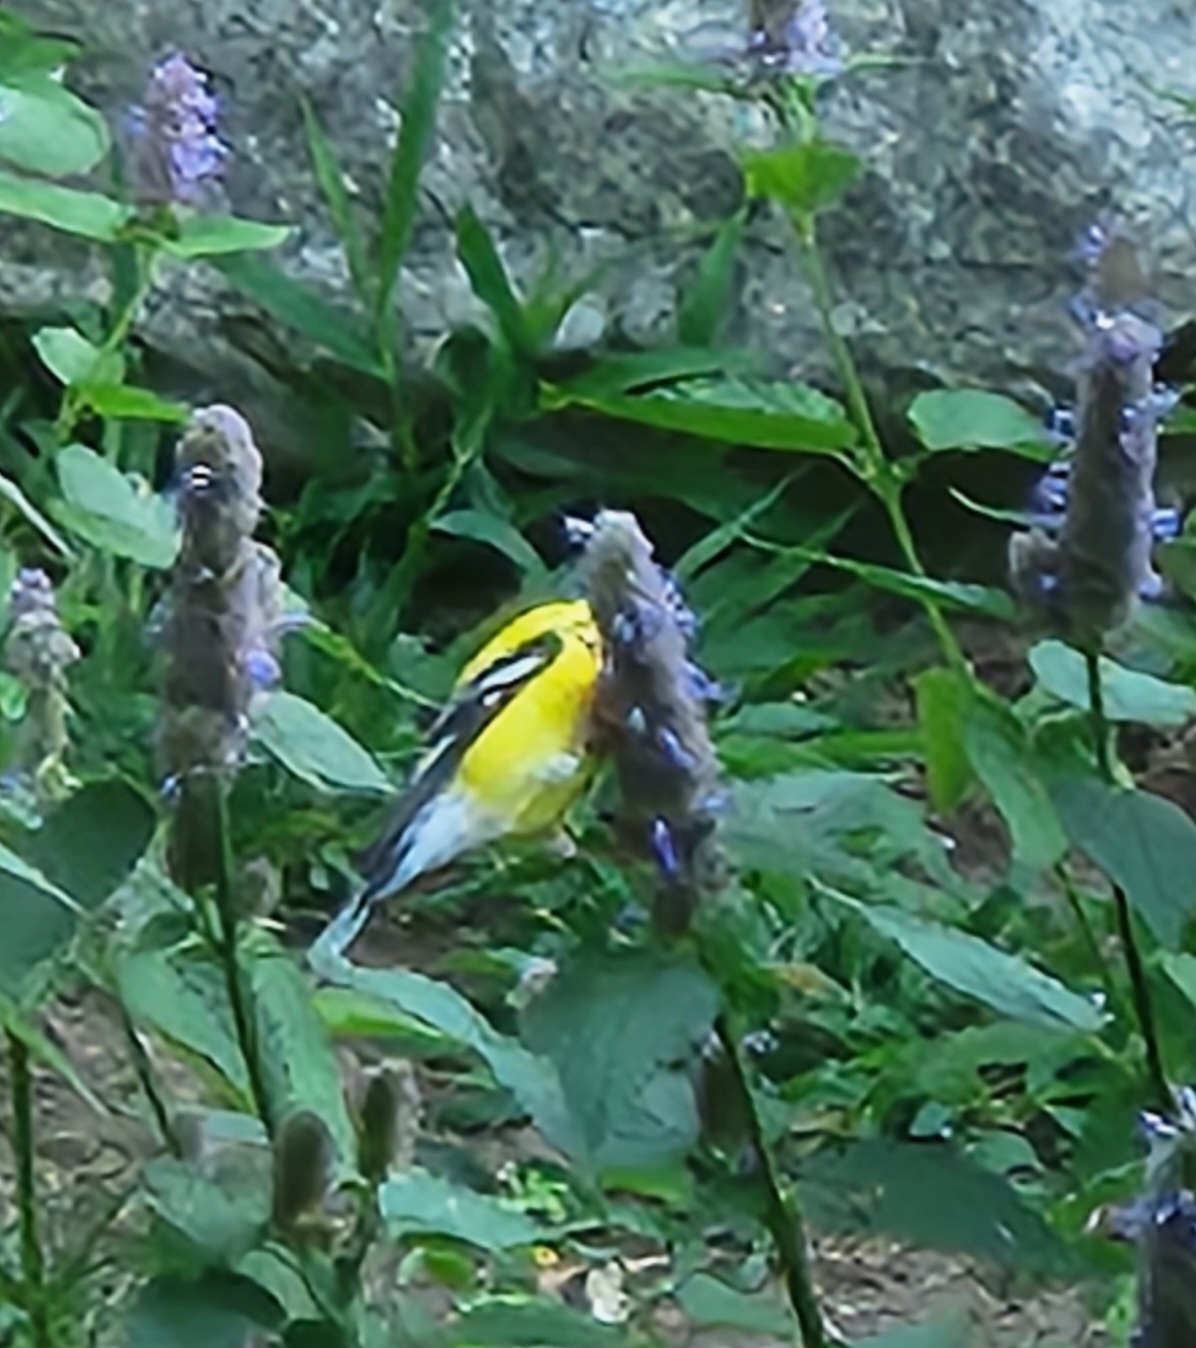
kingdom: Animalia
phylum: Chordata
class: Aves
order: Passeriformes
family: Fringillidae
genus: Spinus
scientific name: Spinus tristis
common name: American goldfinch
